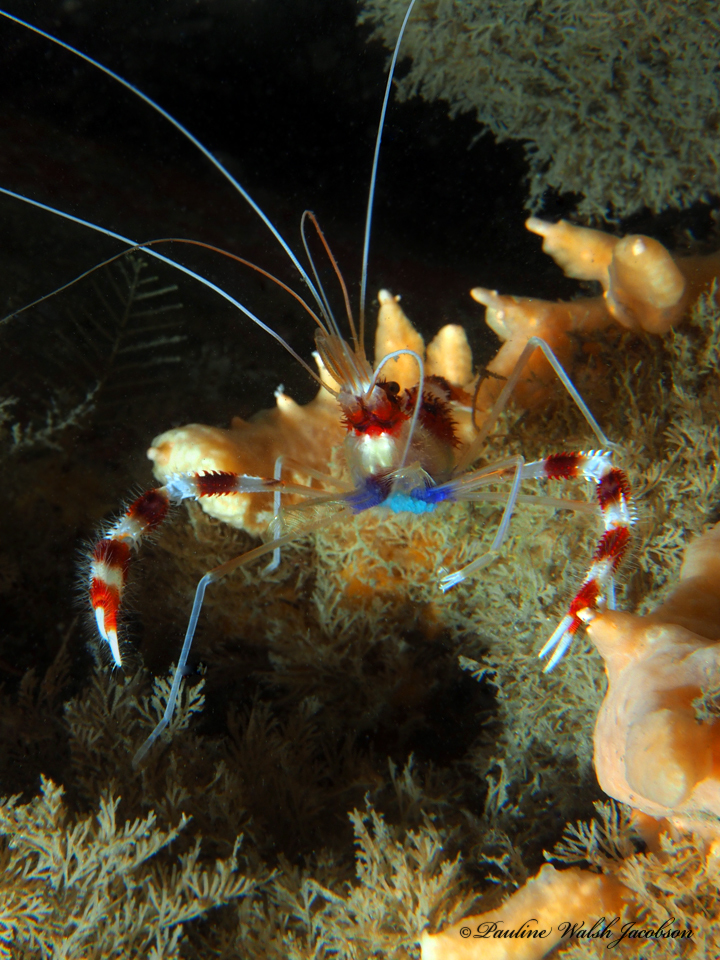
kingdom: Animalia
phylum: Arthropoda
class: Malacostraca
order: Decapoda
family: Stenopodidae
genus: Stenopus
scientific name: Stenopus hispidus
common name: Banded coral shrimp
